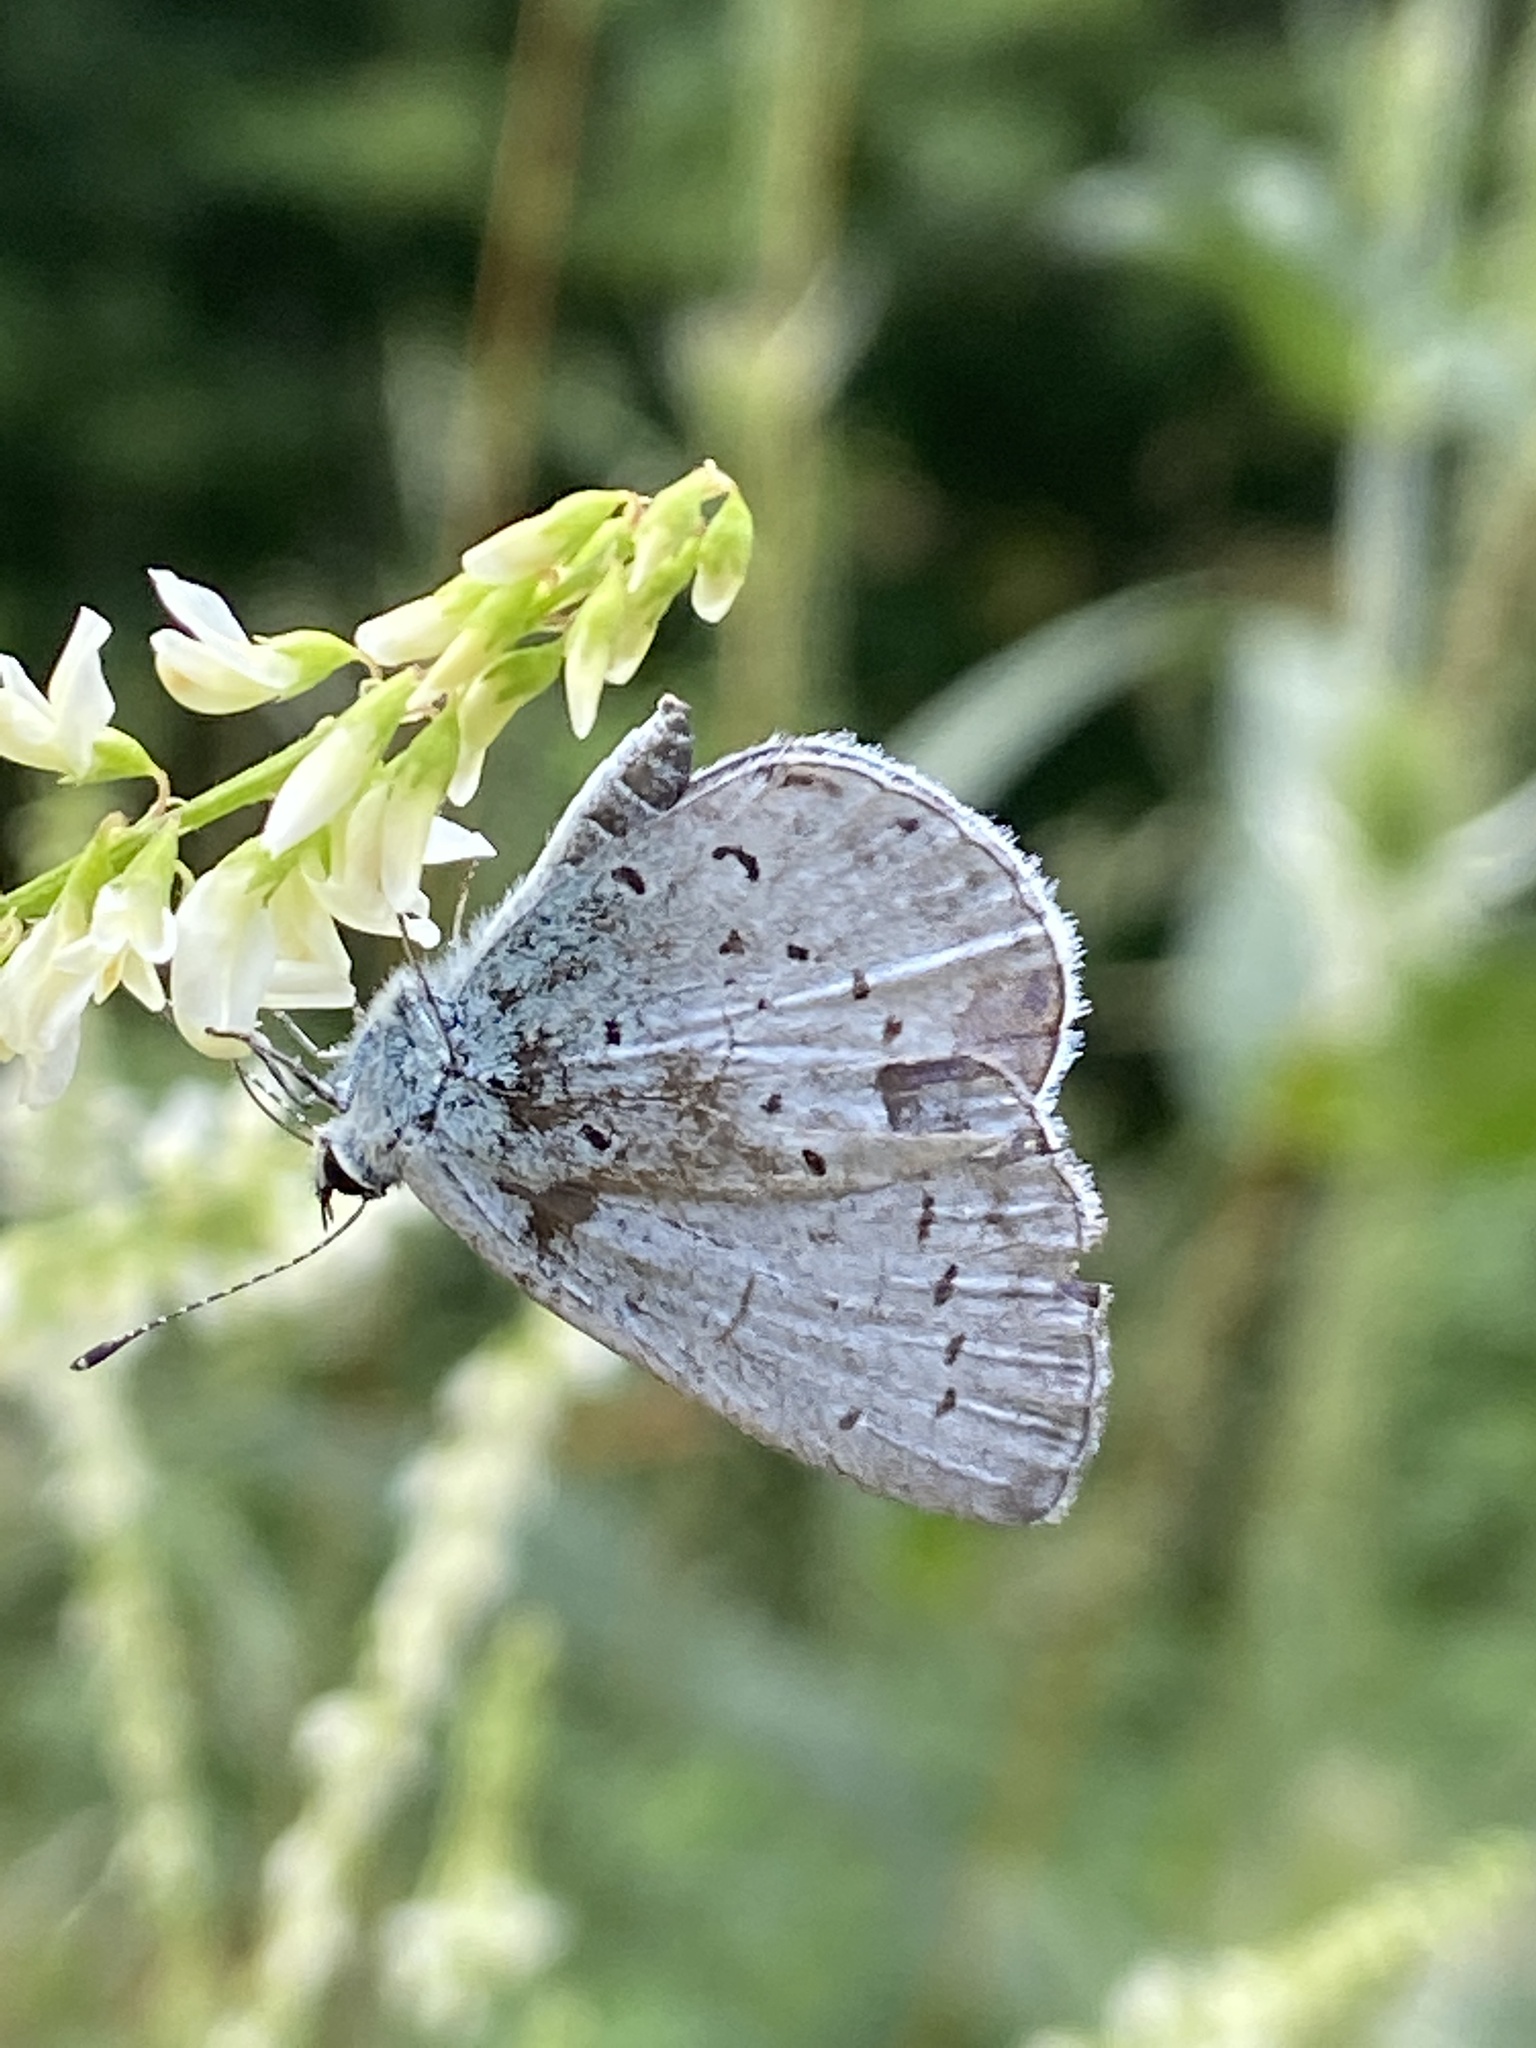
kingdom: Animalia
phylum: Arthropoda
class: Insecta
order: Lepidoptera
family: Lycaenidae
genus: Celastrina
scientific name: Celastrina argiolus
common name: Holly blue
